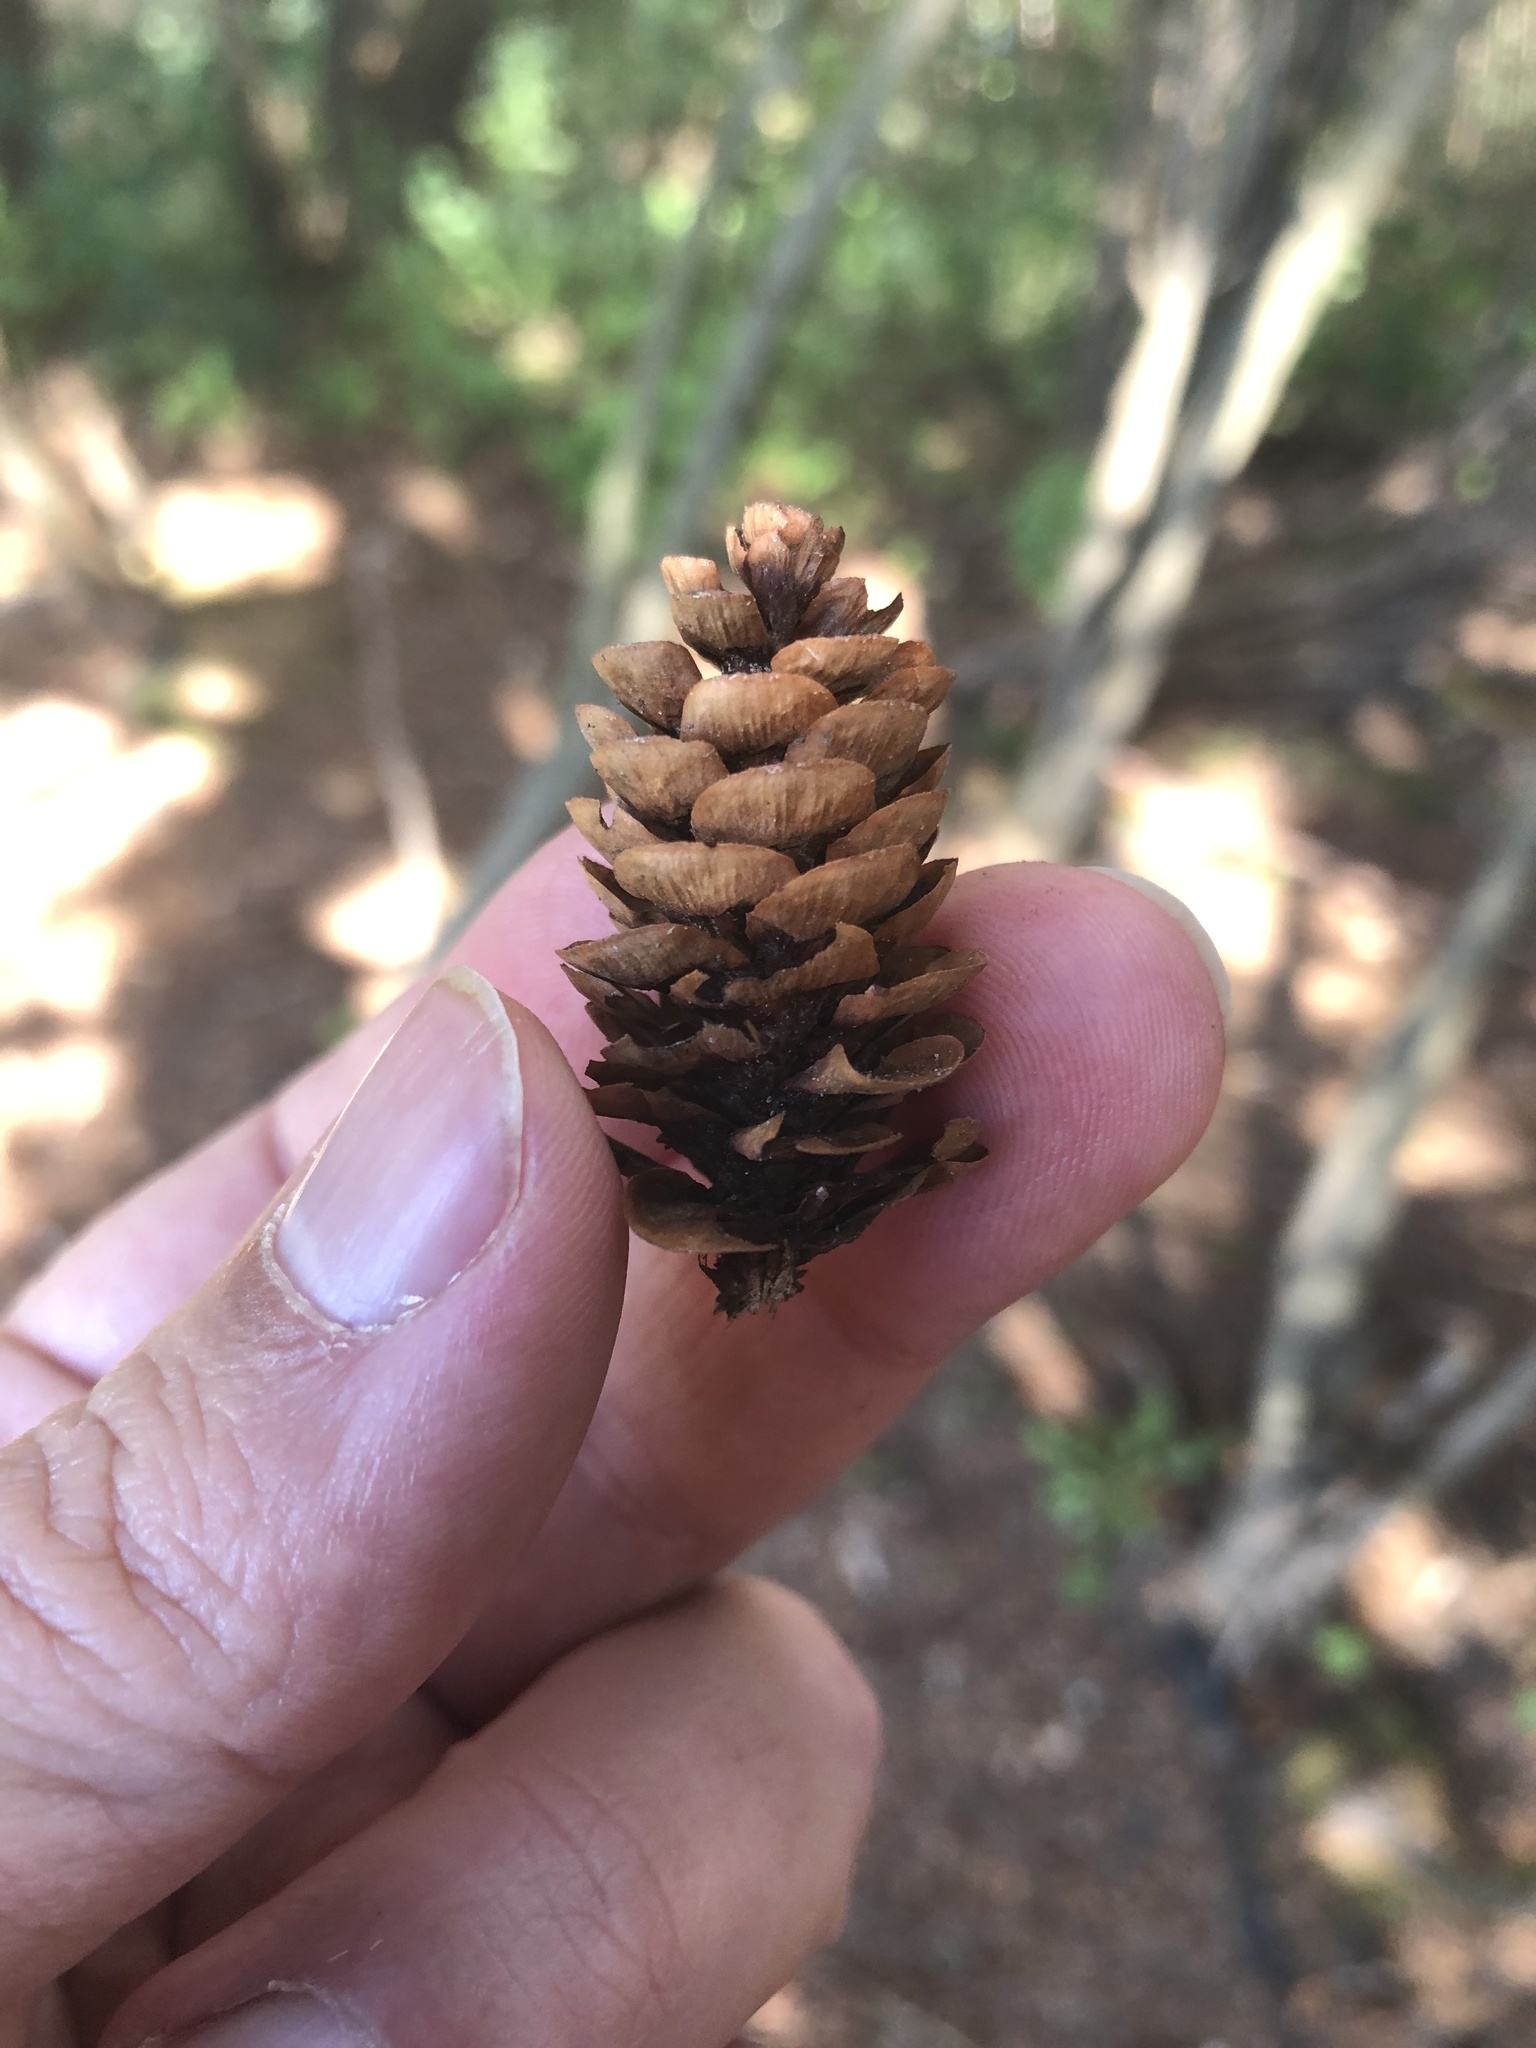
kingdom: Plantae
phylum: Tracheophyta
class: Pinopsida
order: Pinales
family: Pinaceae
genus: Picea
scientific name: Picea glauca
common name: White spruce
